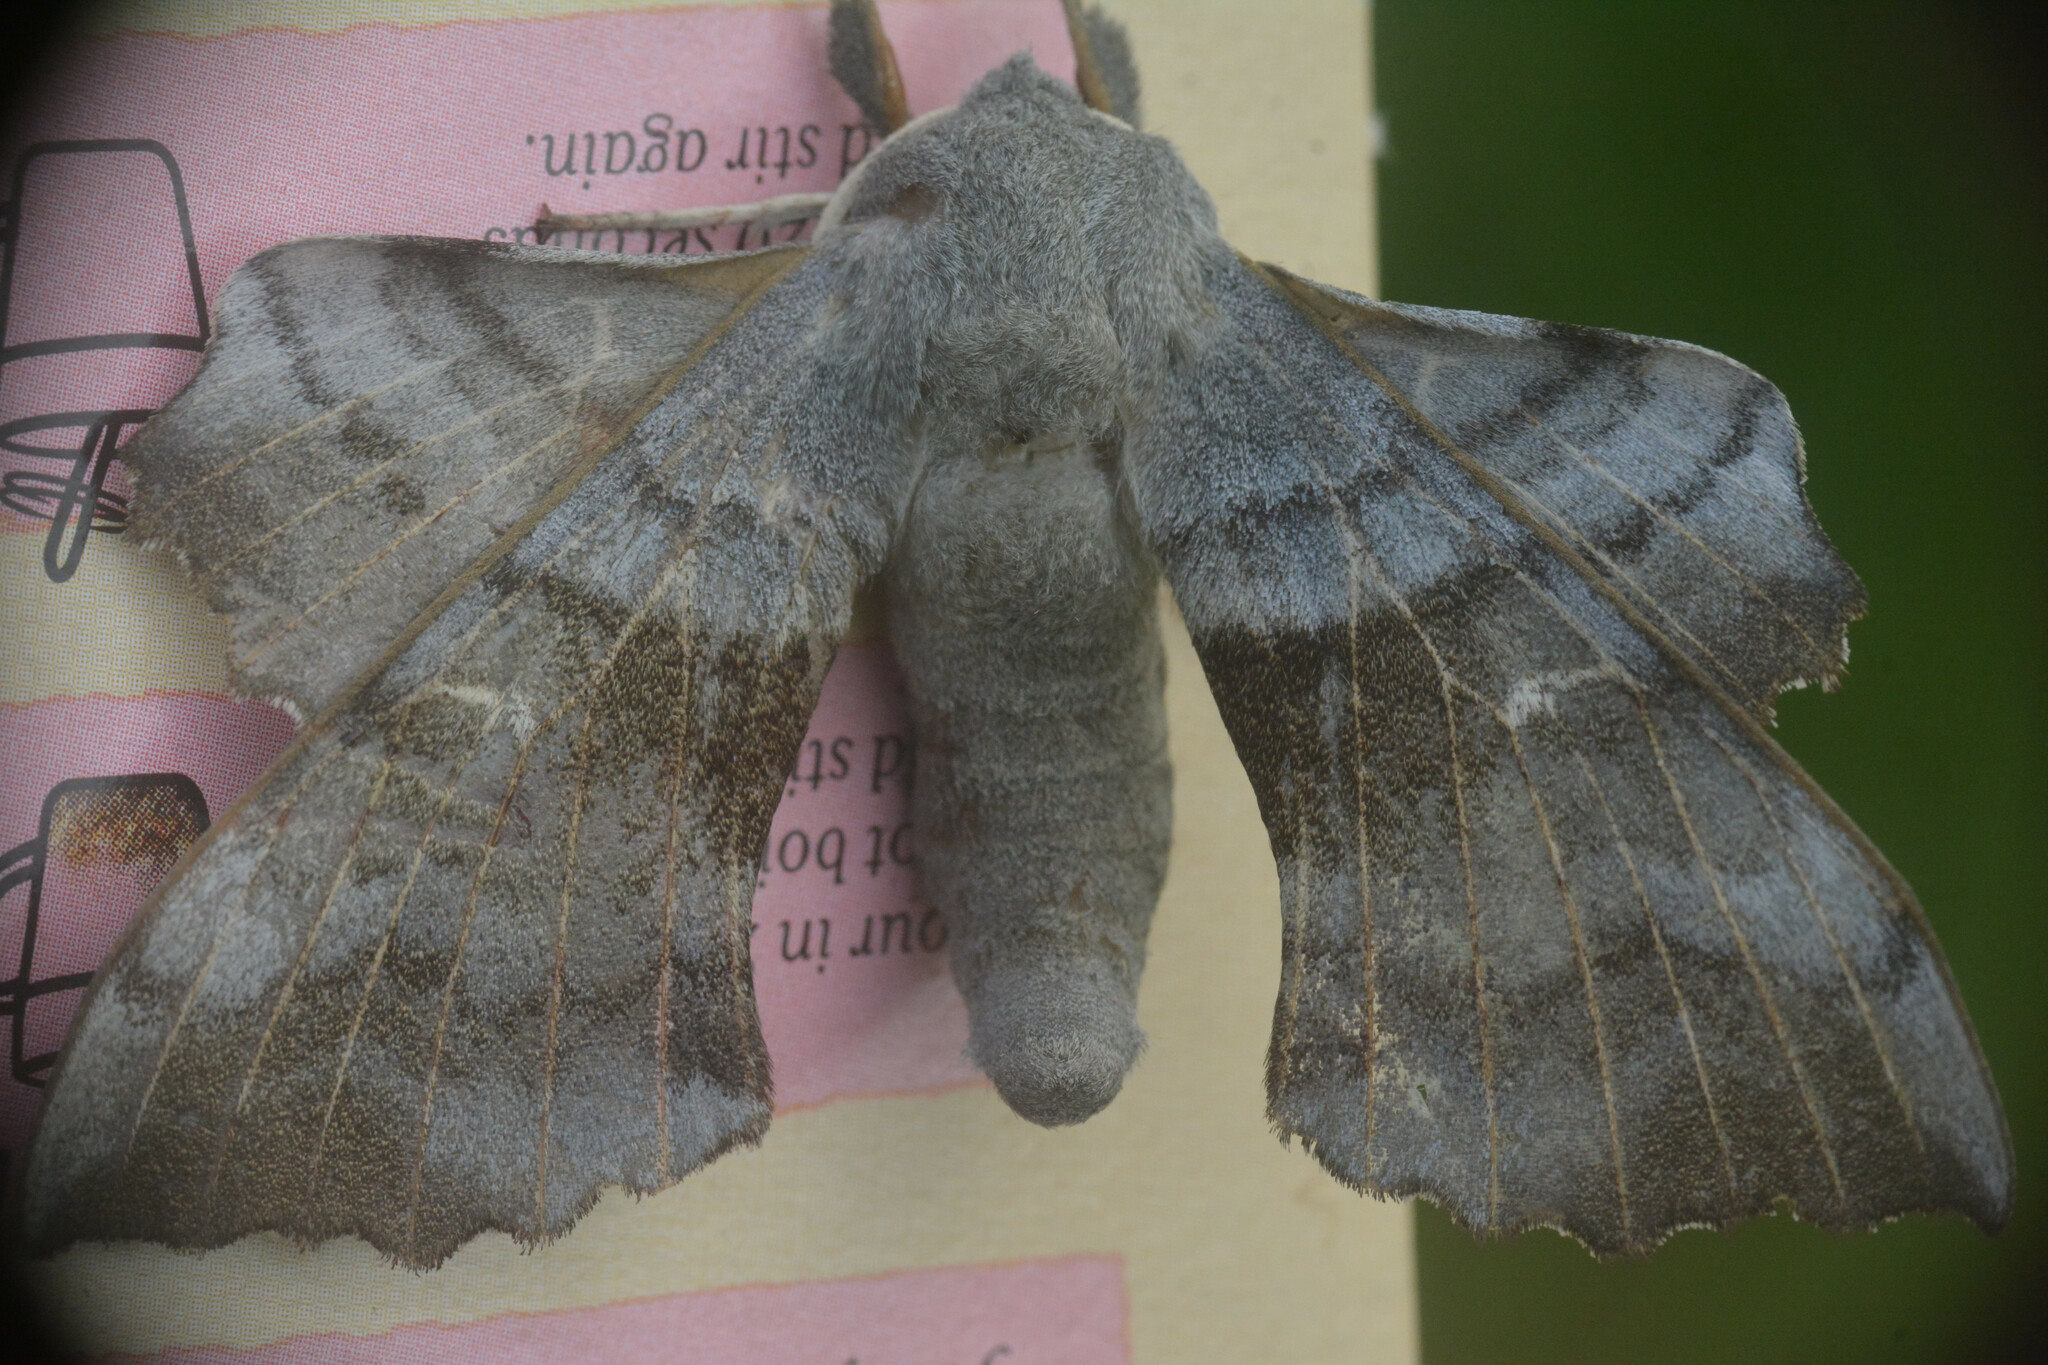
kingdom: Animalia
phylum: Arthropoda
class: Insecta
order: Lepidoptera
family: Sphingidae
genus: Laothoe
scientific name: Laothoe populi
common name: Poplar hawk-moth
